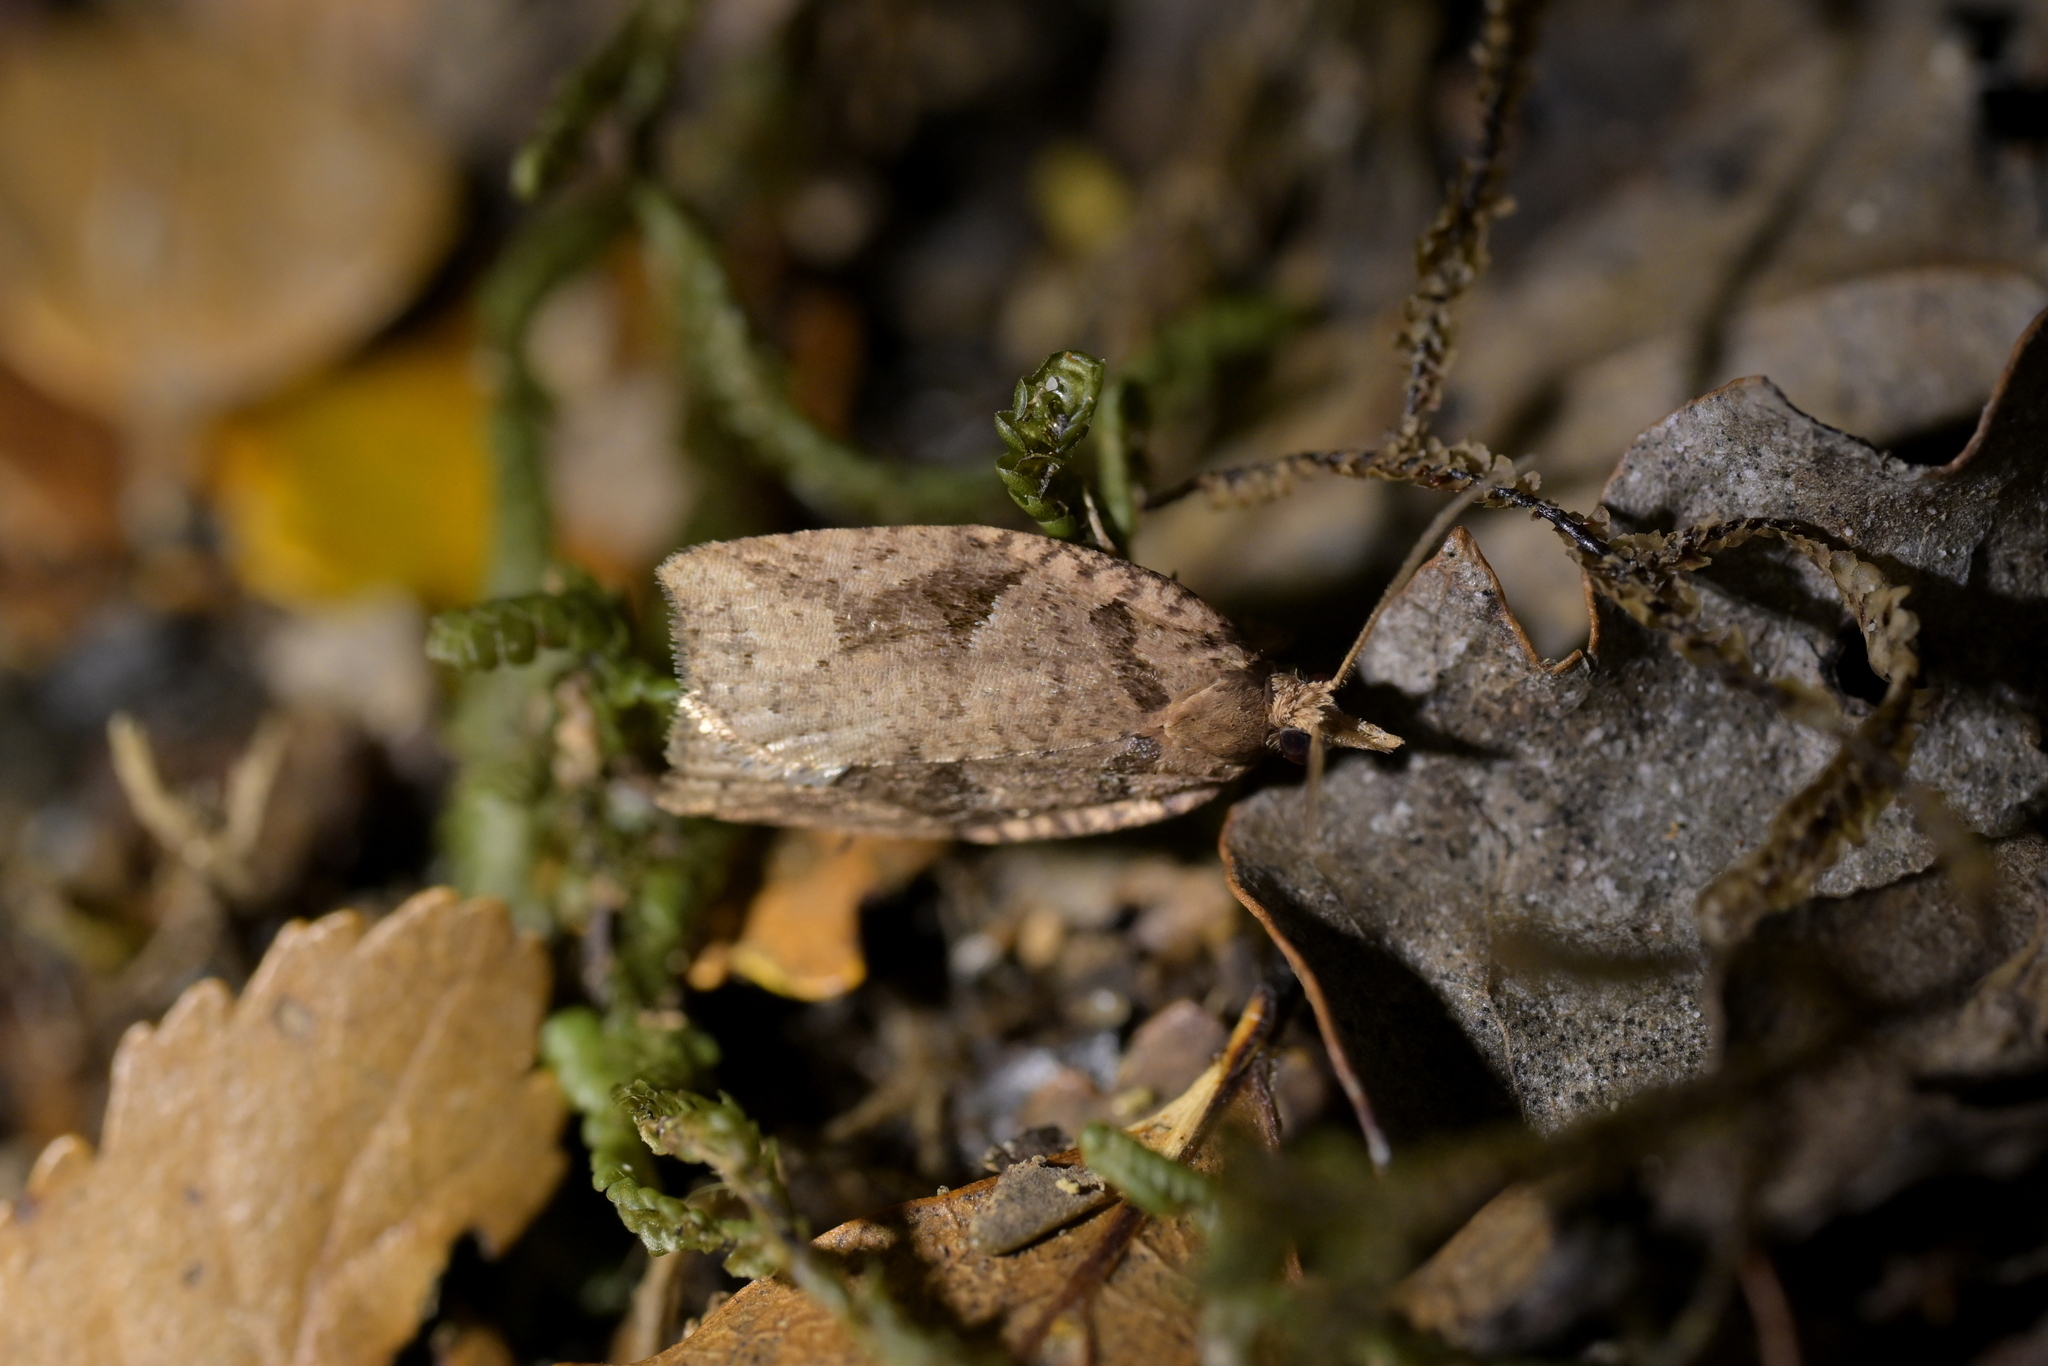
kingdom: Animalia
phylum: Arthropoda
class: Insecta
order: Lepidoptera
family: Tortricidae
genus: Ctenopseustis
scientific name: Ctenopseustis obliquana
